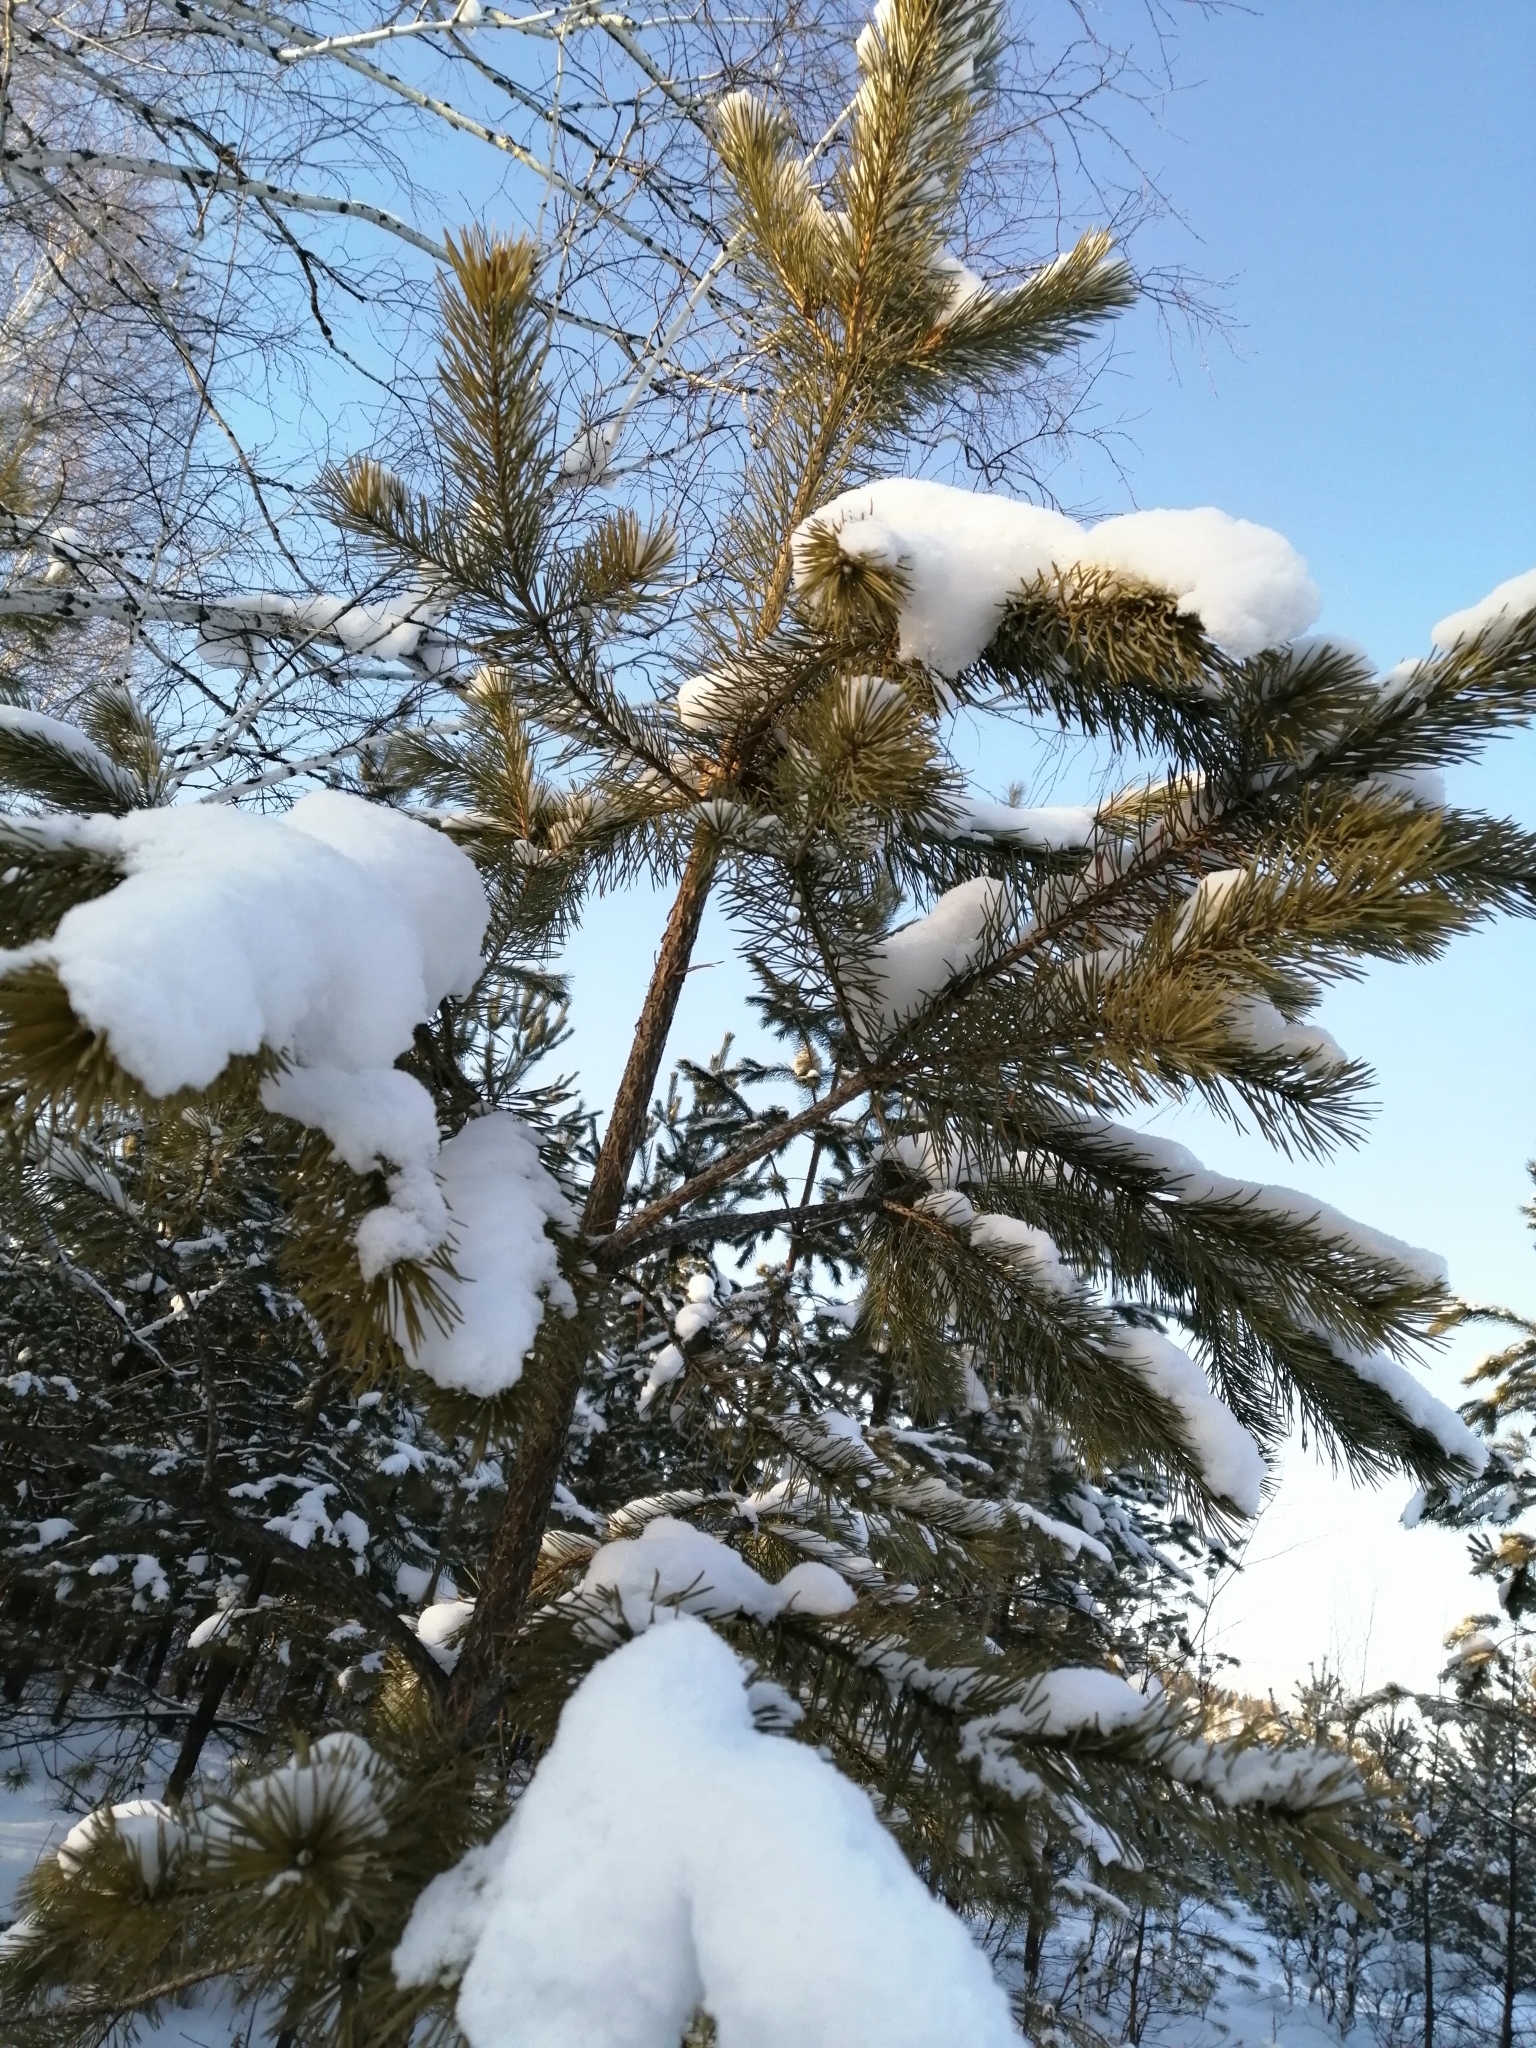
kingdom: Plantae
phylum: Tracheophyta
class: Pinopsida
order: Pinales
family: Pinaceae
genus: Pinus
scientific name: Pinus sylvestris
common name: Scots pine
